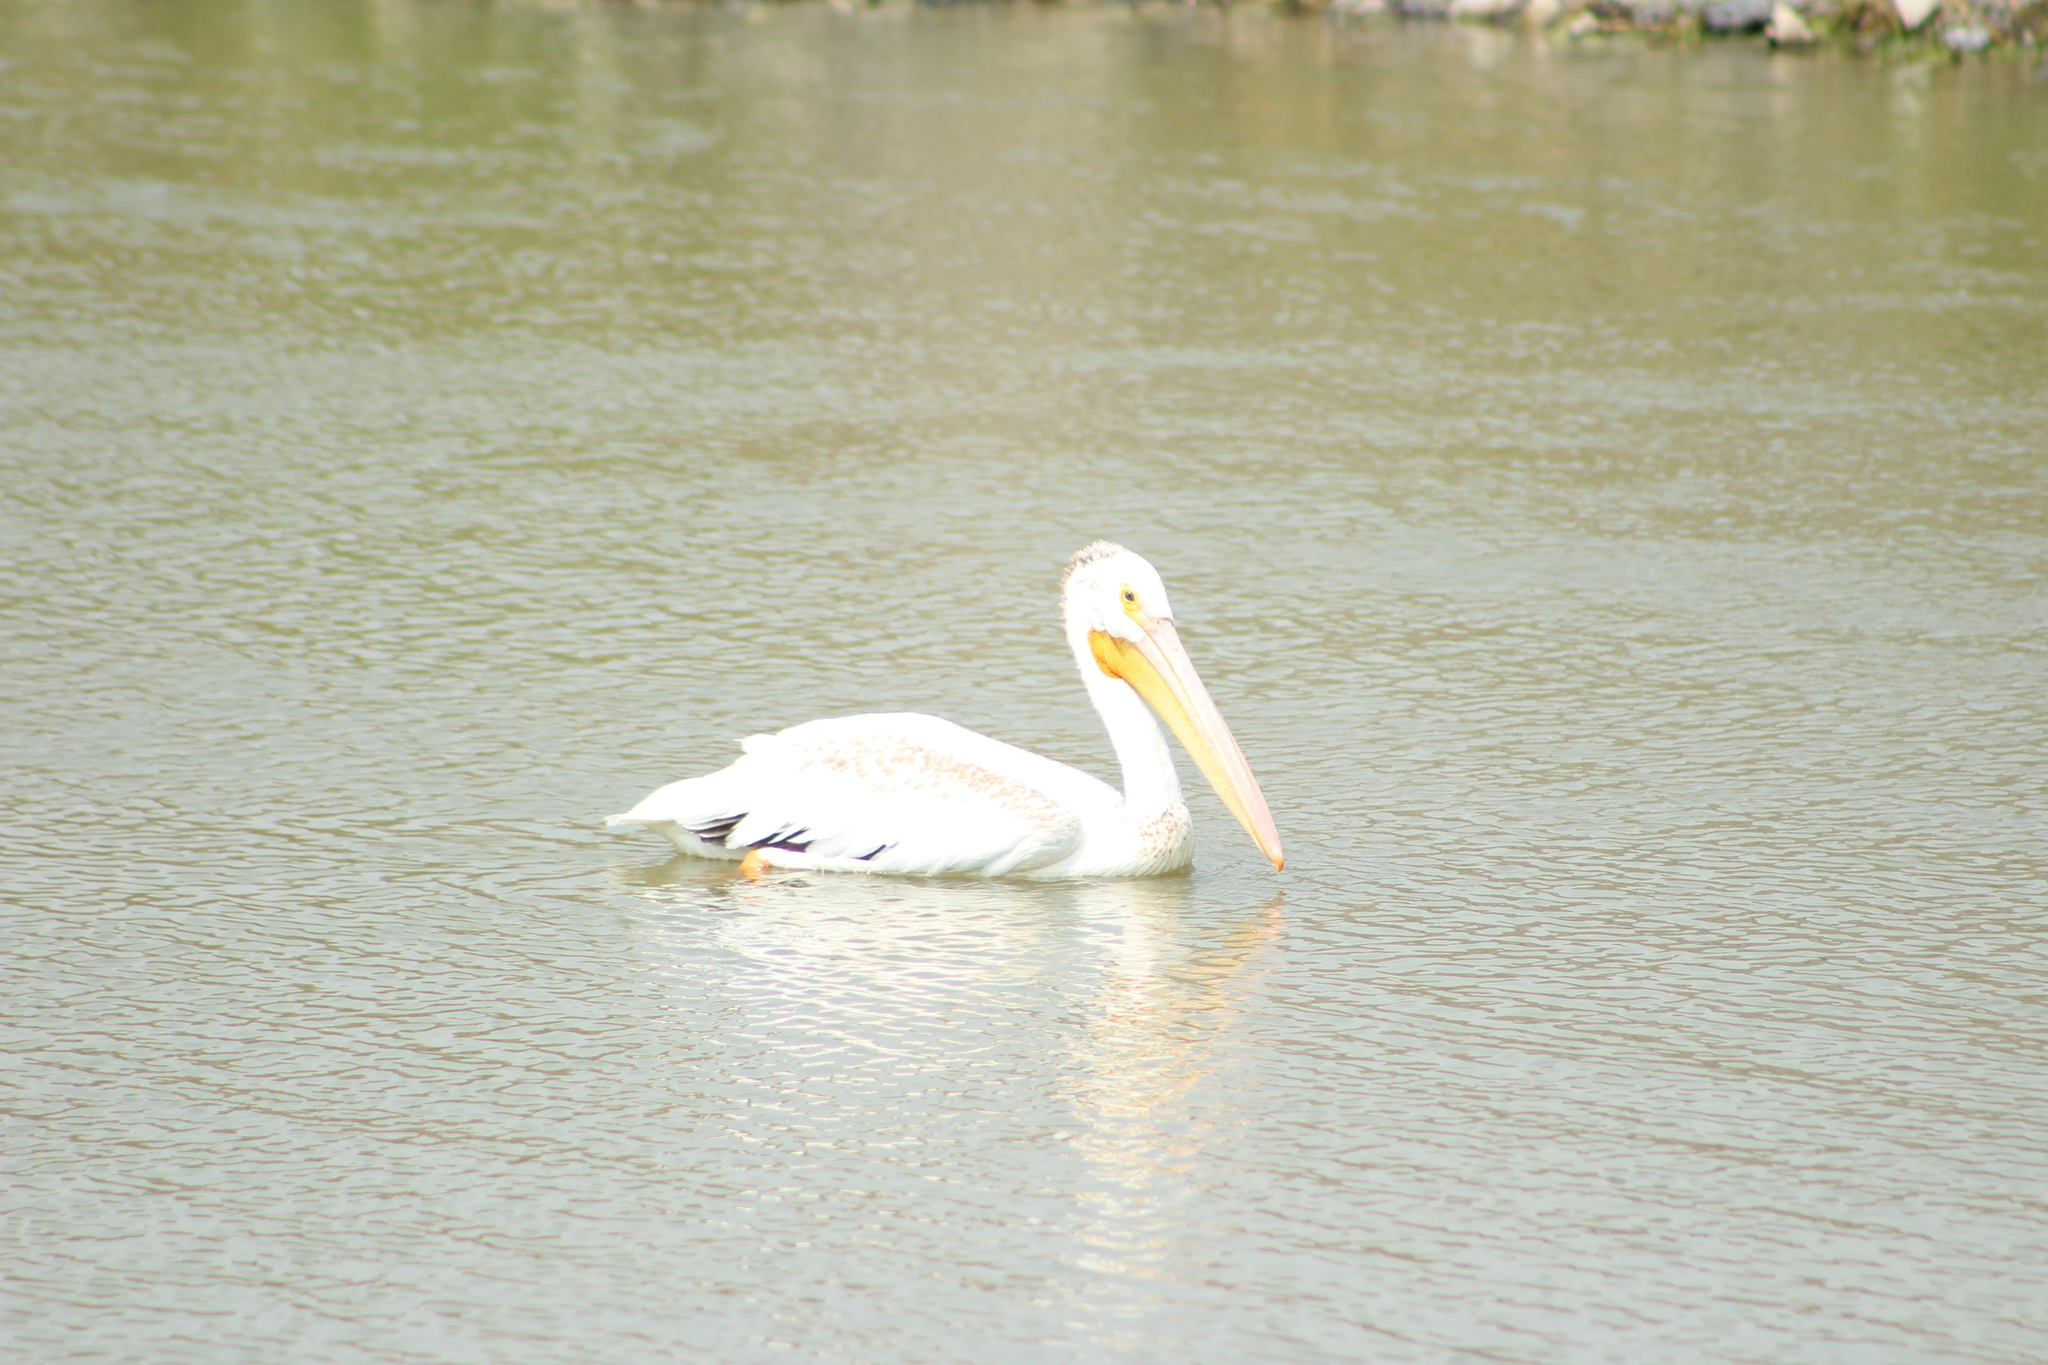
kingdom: Animalia
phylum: Chordata
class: Aves
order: Pelecaniformes
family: Pelecanidae
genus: Pelecanus
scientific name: Pelecanus erythrorhynchos
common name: American white pelican
